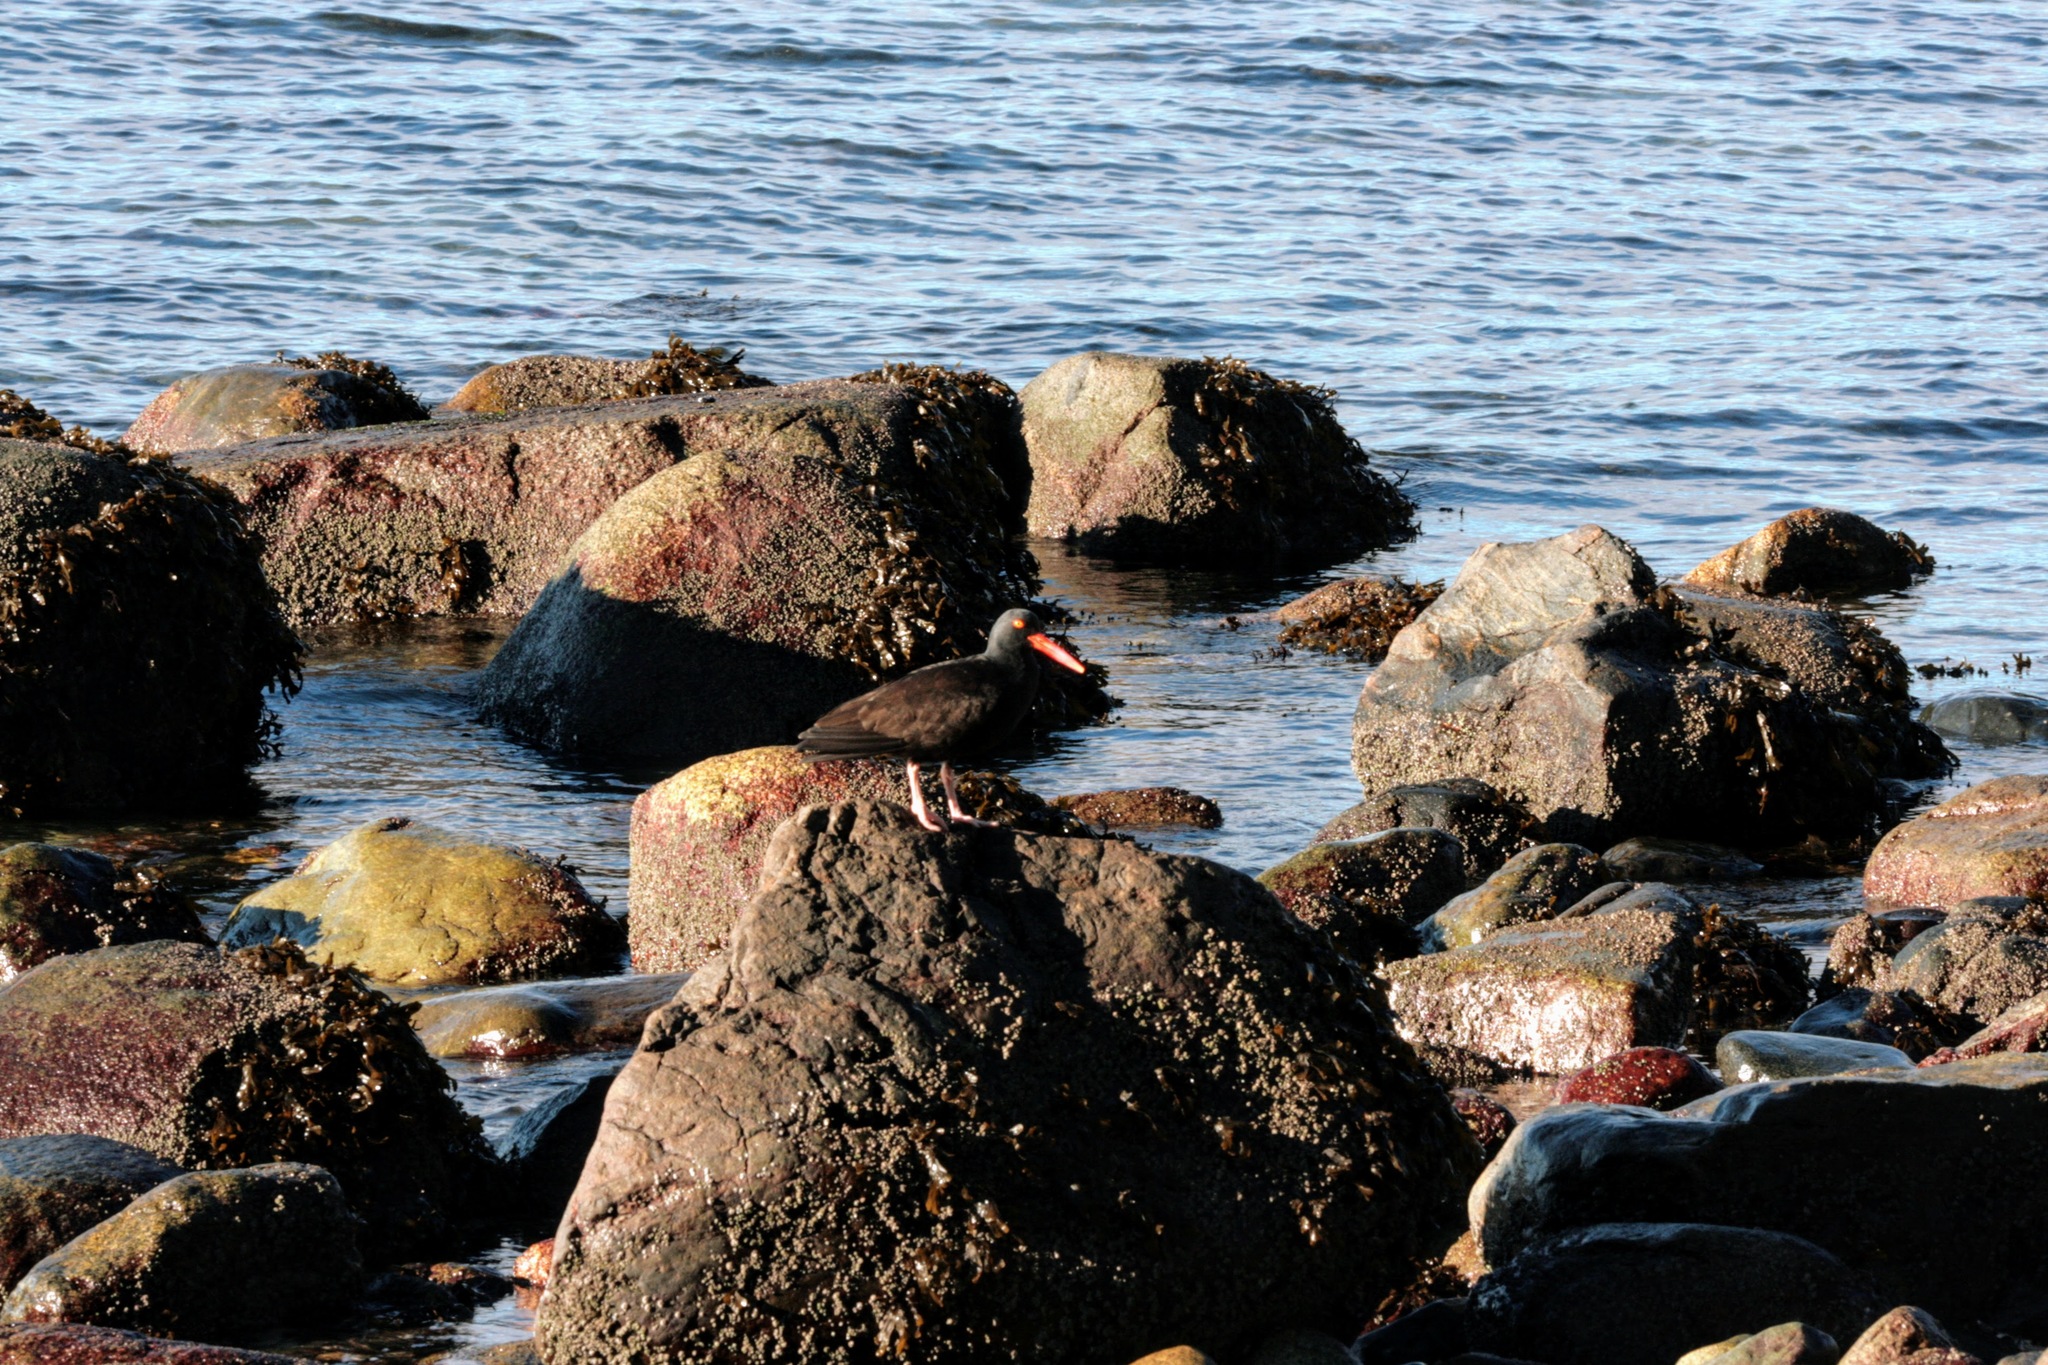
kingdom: Animalia
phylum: Chordata
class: Aves
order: Charadriiformes
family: Haematopodidae
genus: Haematopus
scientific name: Haematopus bachmani
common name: Black oystercatcher
